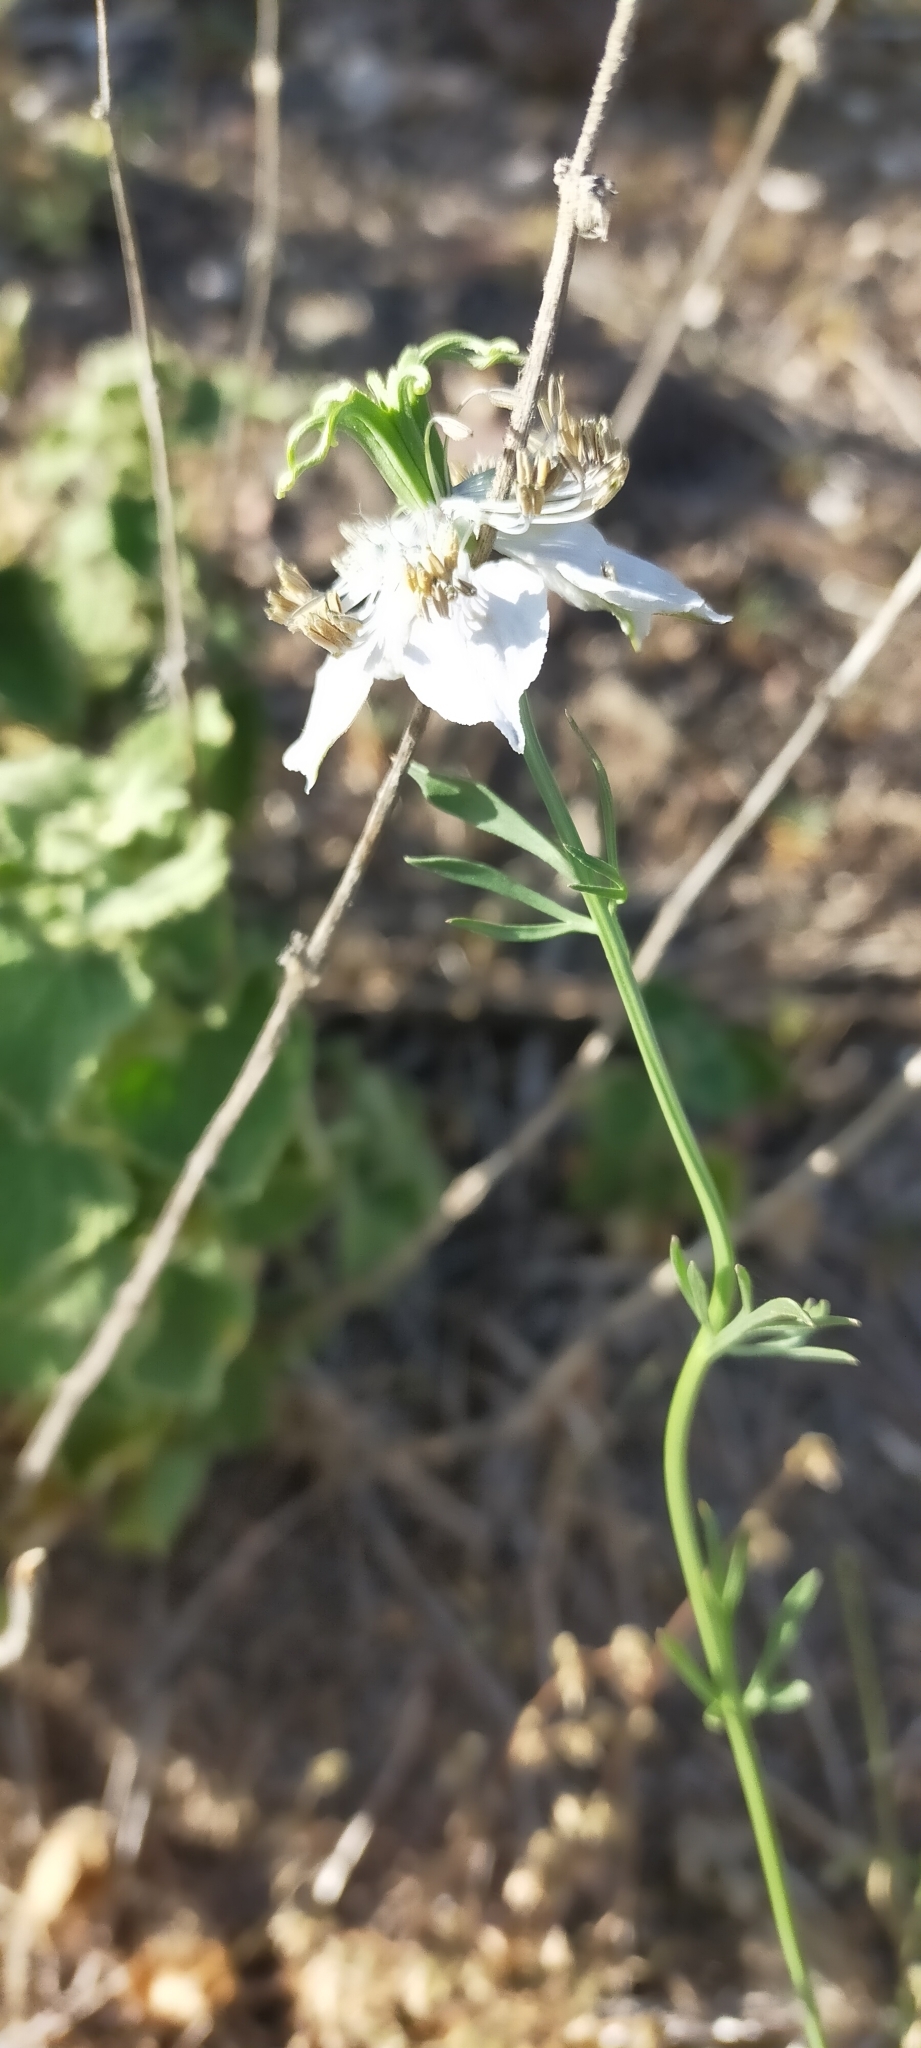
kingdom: Plantae
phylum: Tracheophyta
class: Magnoliopsida
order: Ranunculales
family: Ranunculaceae
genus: Nigella
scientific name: Nigella gallica
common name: Pale fennel-flower
